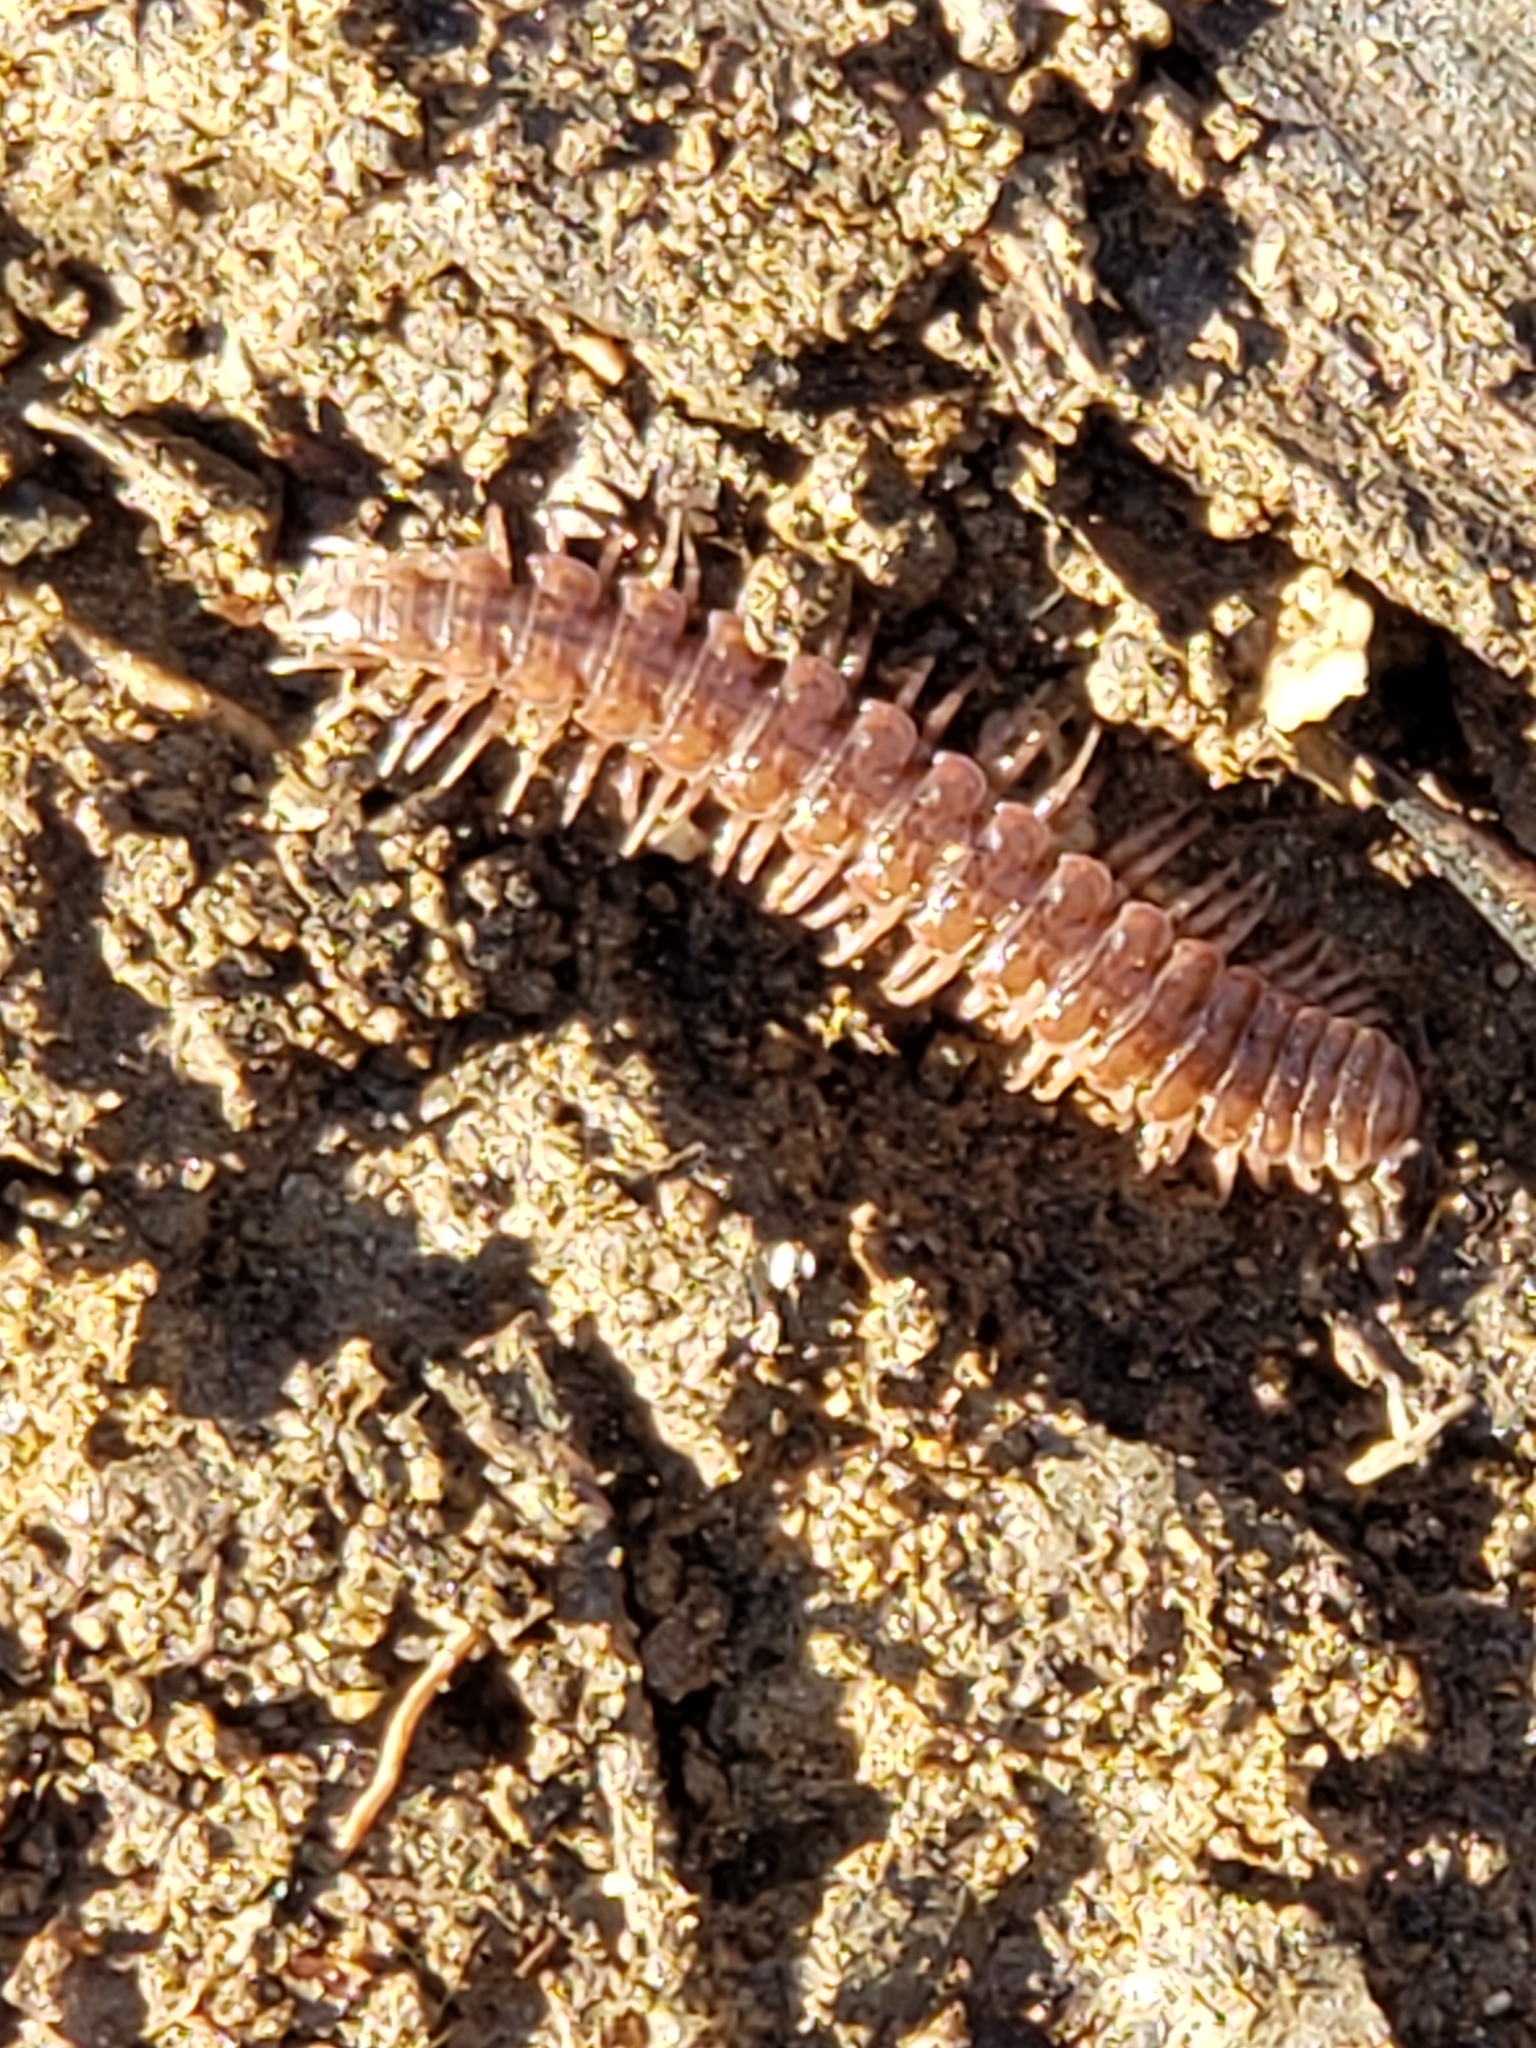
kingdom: Animalia
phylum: Arthropoda
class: Diplopoda
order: Polydesmida
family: Polydesmidae
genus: Pseudopolydesmus
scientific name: Pseudopolydesmus serratus
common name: Common pink flat-back millipede
